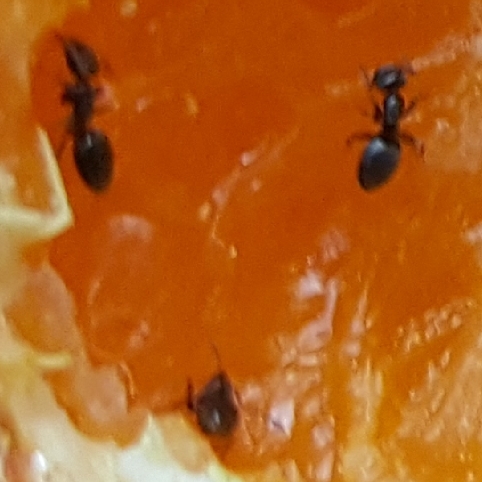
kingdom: Animalia
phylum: Arthropoda
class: Insecta
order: Hymenoptera
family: Formicidae
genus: Tapinoma
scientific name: Tapinoma sessile
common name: Odorous house ant
